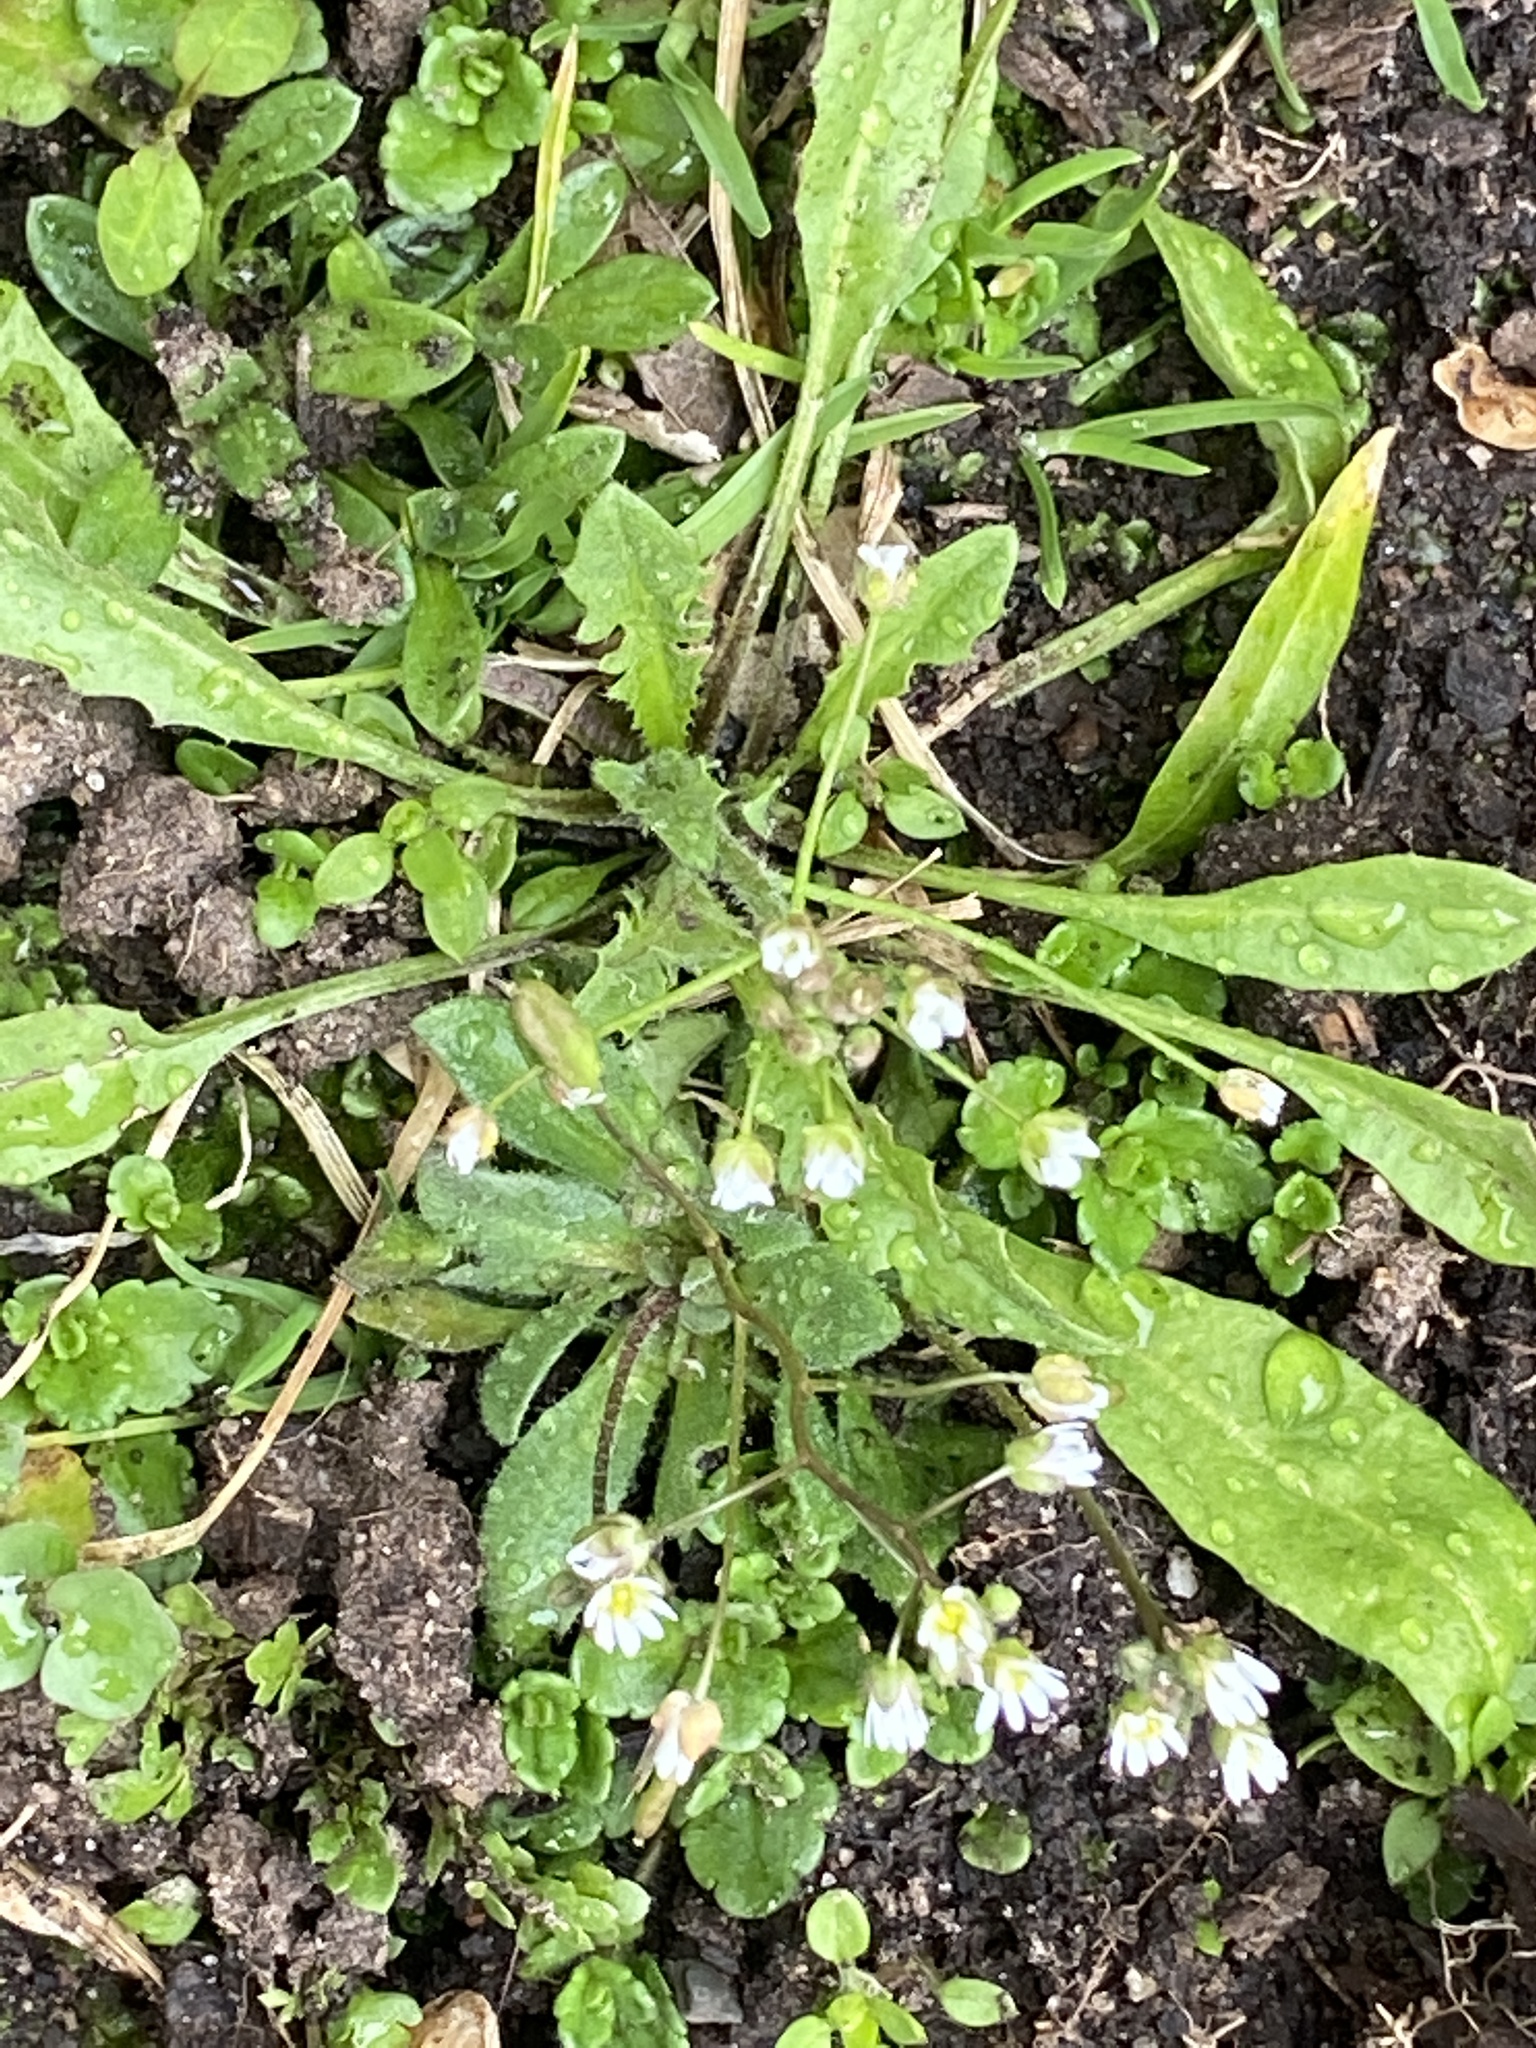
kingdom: Plantae
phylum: Tracheophyta
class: Magnoliopsida
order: Brassicales
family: Brassicaceae
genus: Draba
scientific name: Draba verna
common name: Spring draba
